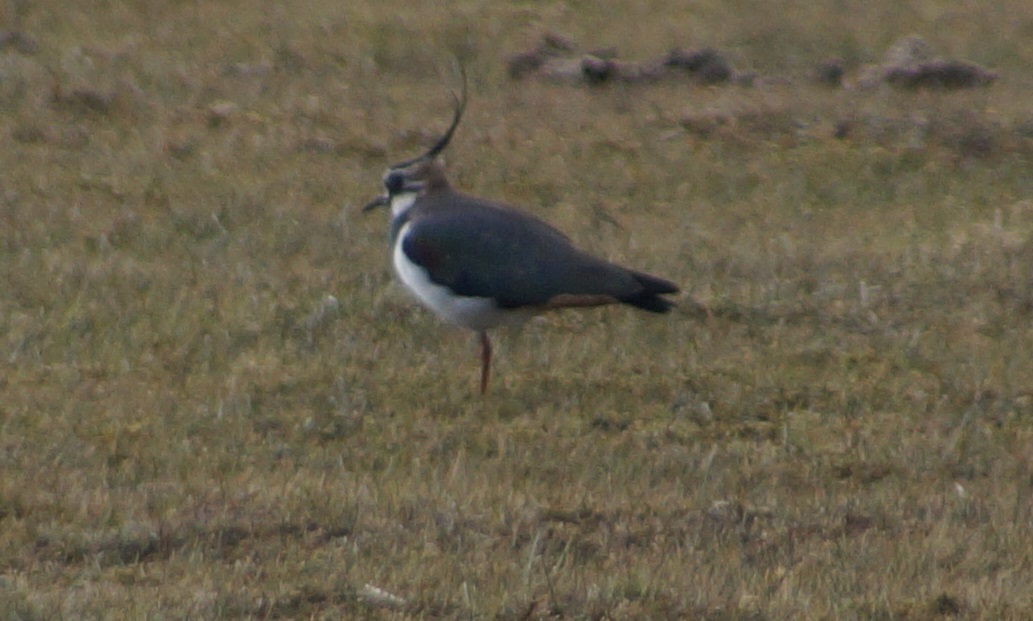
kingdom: Animalia
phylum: Chordata
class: Aves
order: Charadriiformes
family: Charadriidae
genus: Vanellus
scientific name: Vanellus vanellus
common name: Northern lapwing
